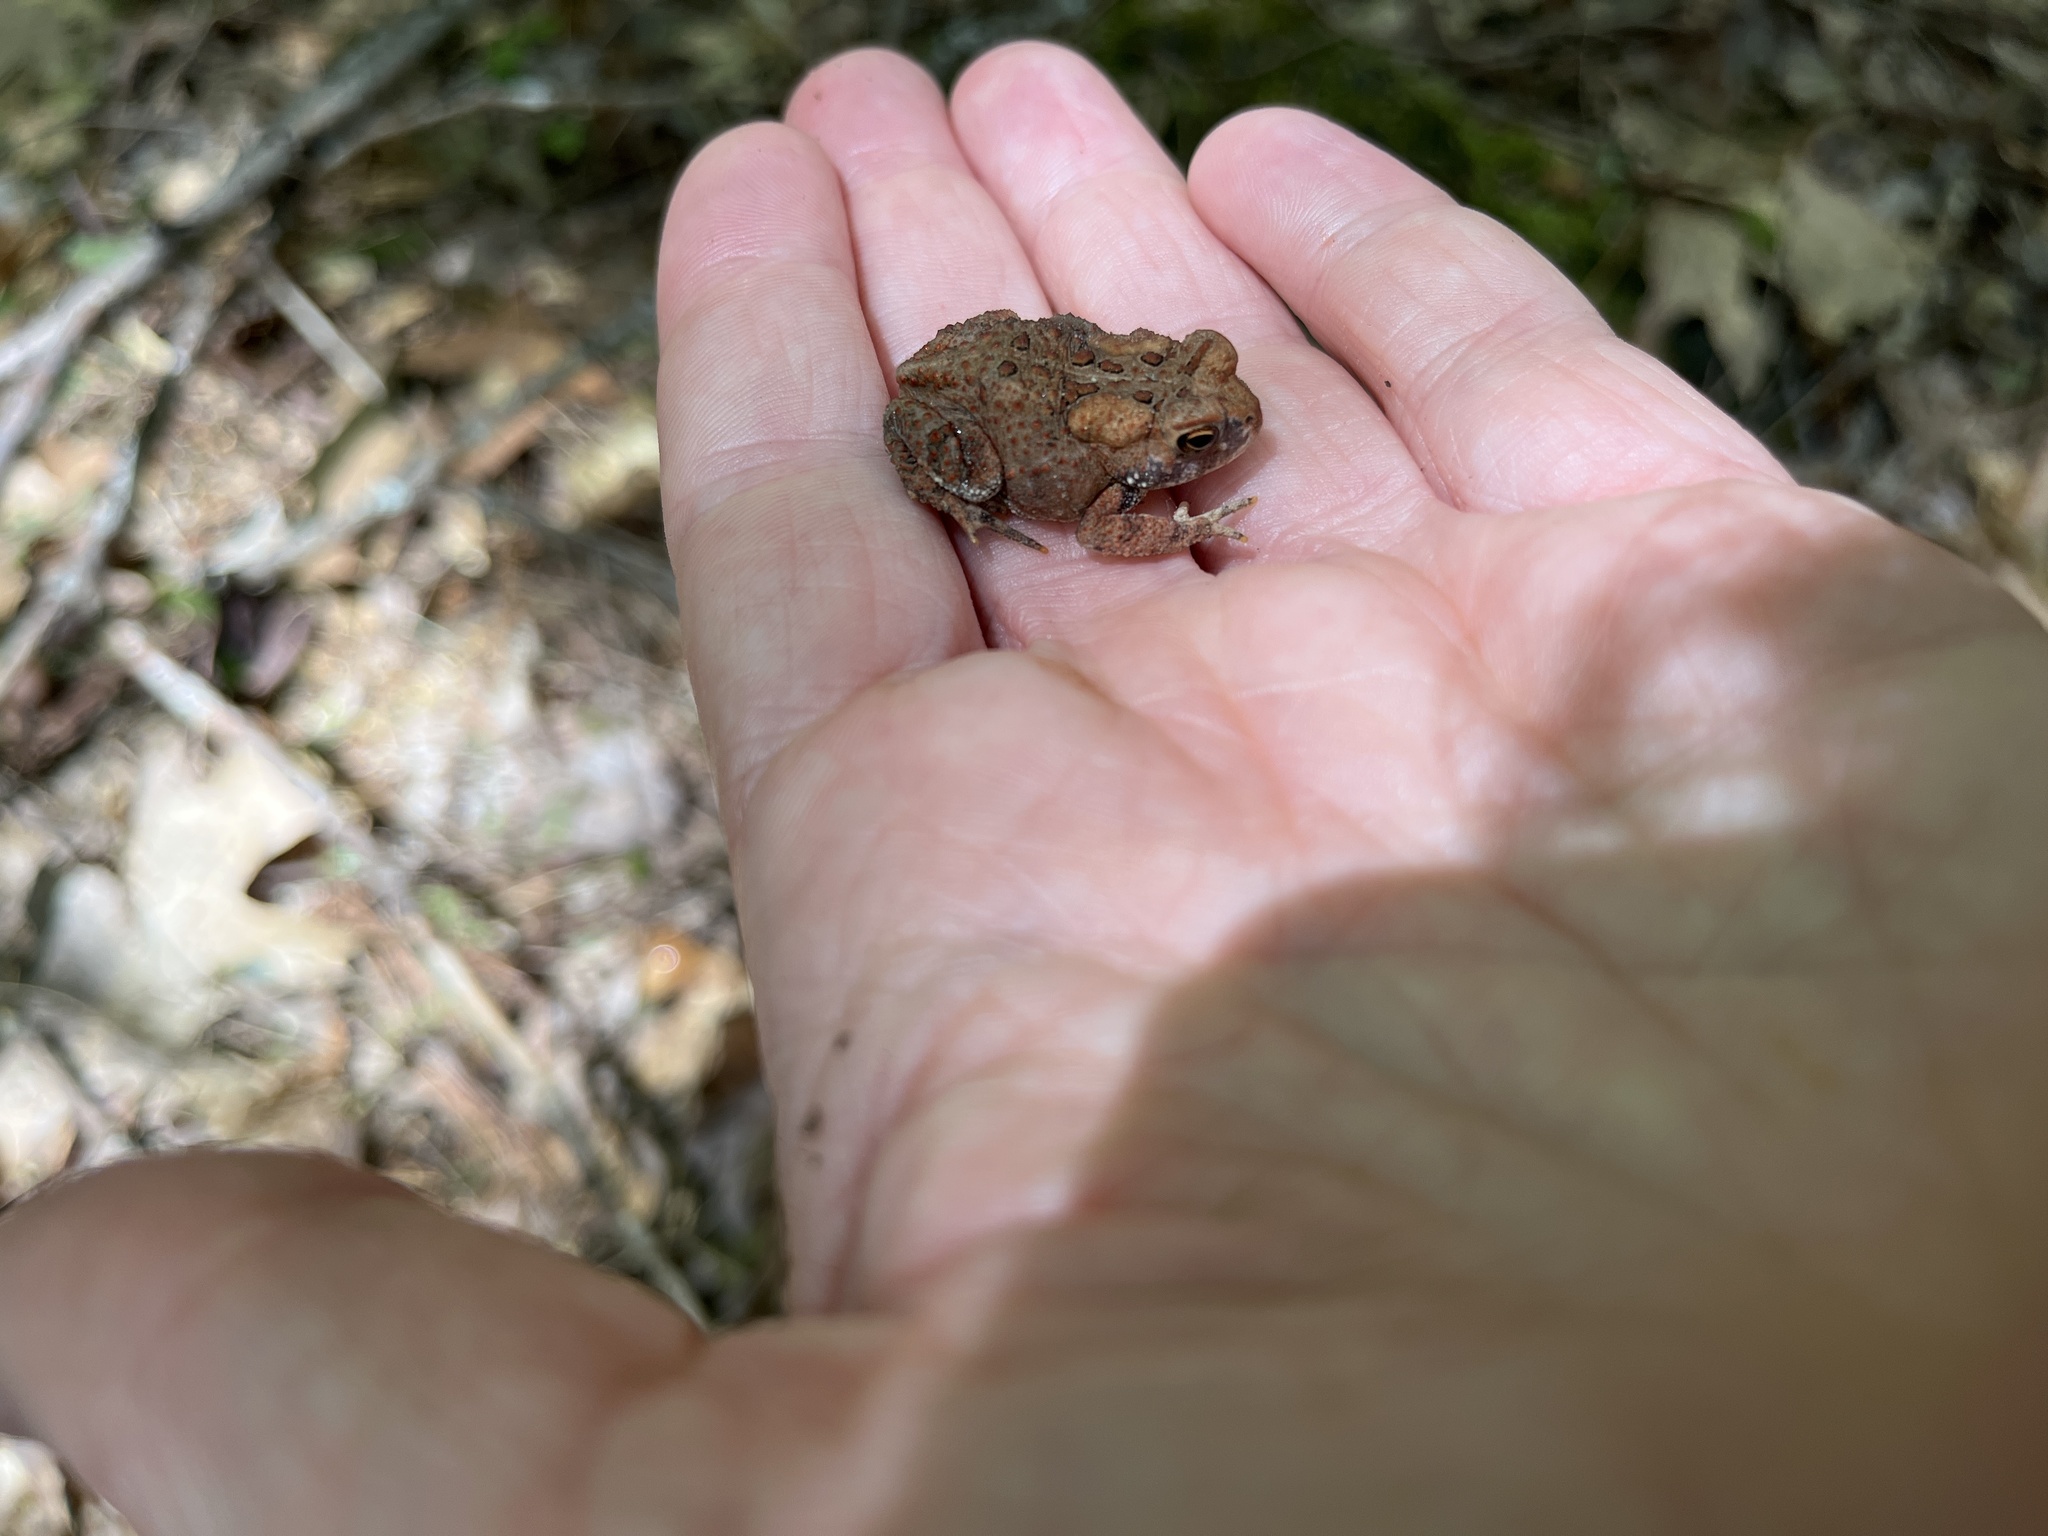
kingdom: Animalia
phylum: Chordata
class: Amphibia
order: Anura
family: Bufonidae
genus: Anaxyrus
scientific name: Anaxyrus americanus
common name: American toad
